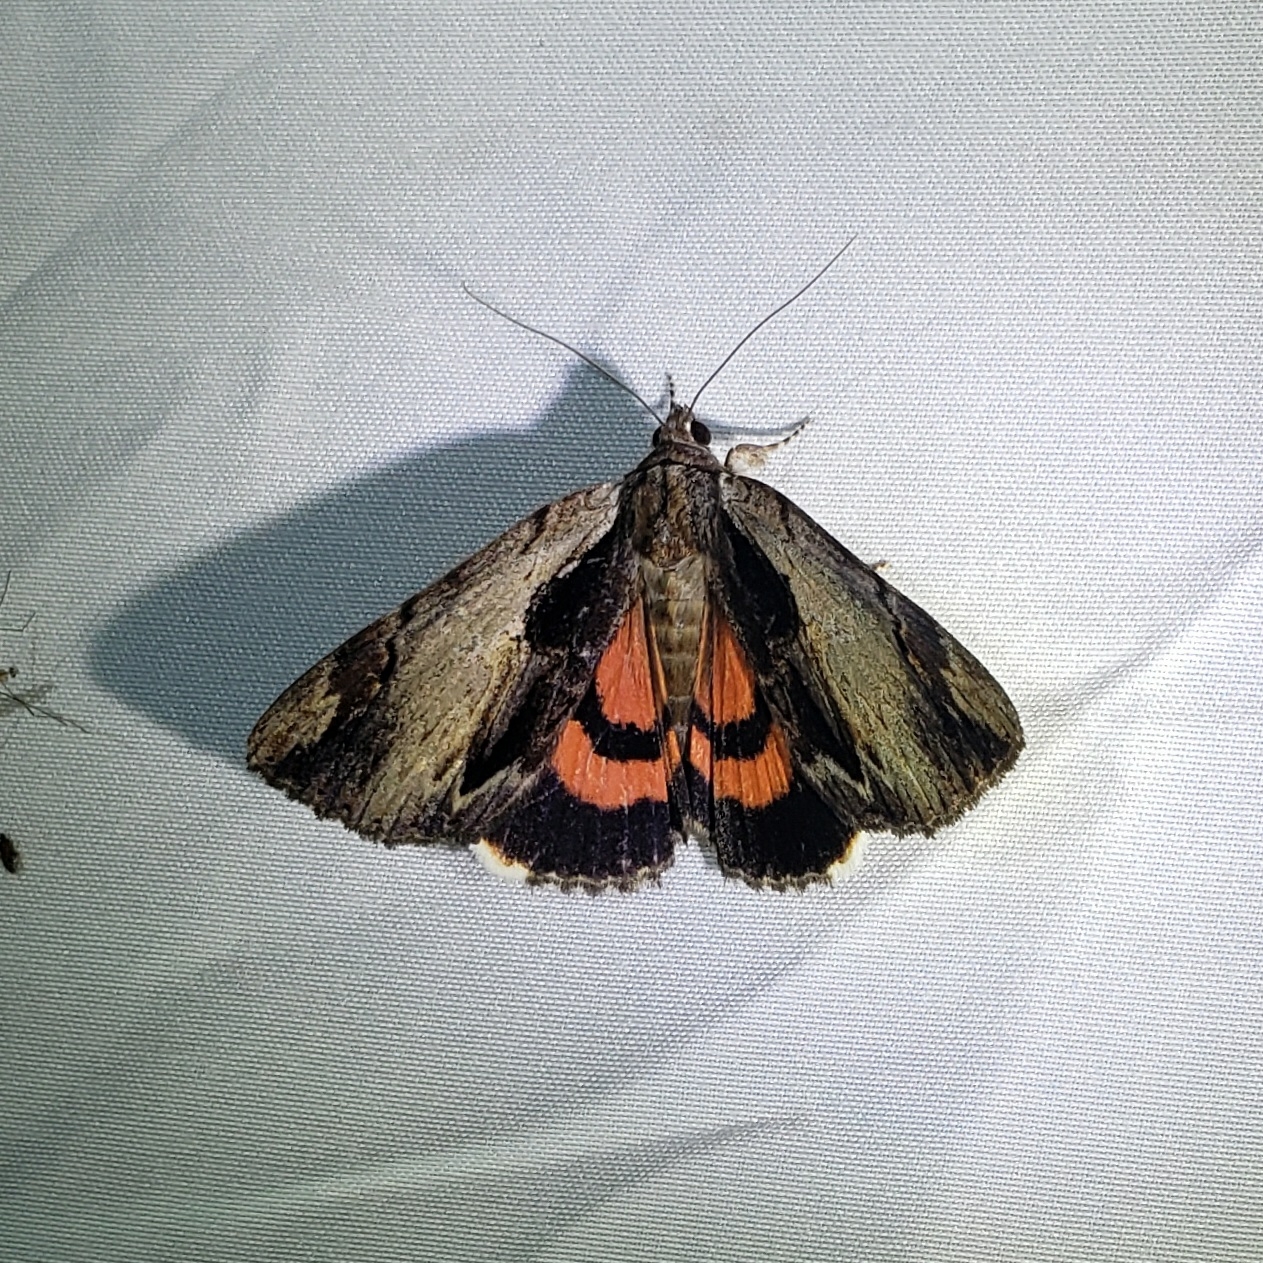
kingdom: Animalia
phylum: Arthropoda
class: Insecta
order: Lepidoptera
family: Erebidae
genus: Catocala
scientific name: Catocala ultronia
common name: Ultronia underwing
